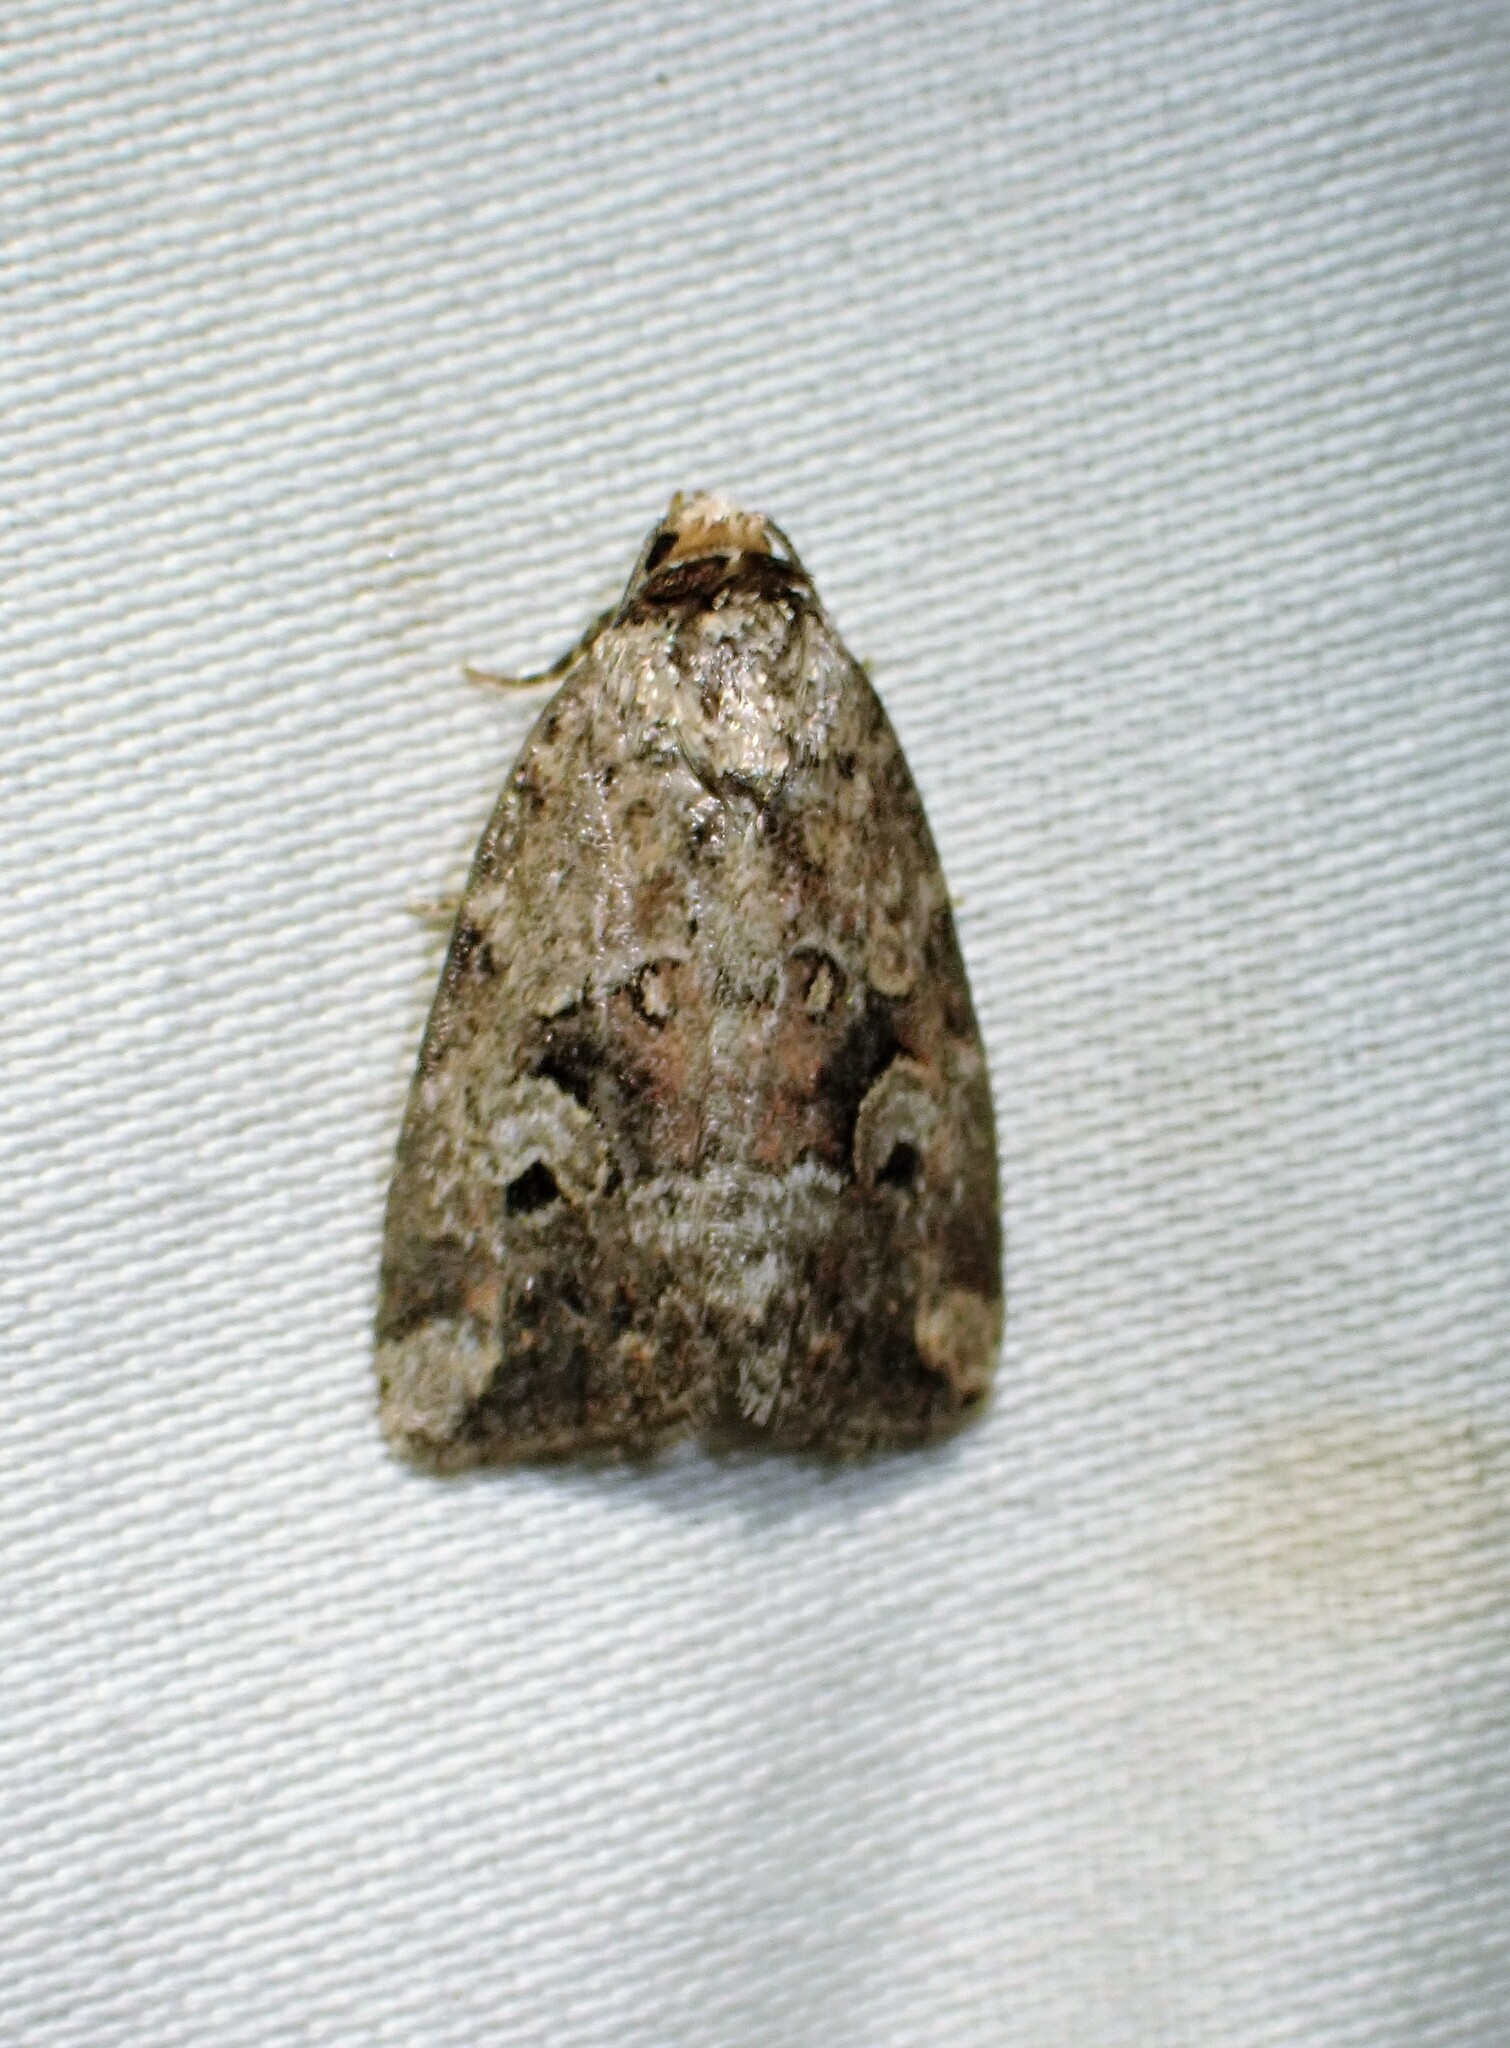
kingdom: Animalia
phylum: Arthropoda
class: Insecta
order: Lepidoptera
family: Noctuidae
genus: Elaphria
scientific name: Elaphria alapallida
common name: Pale-winged midget
